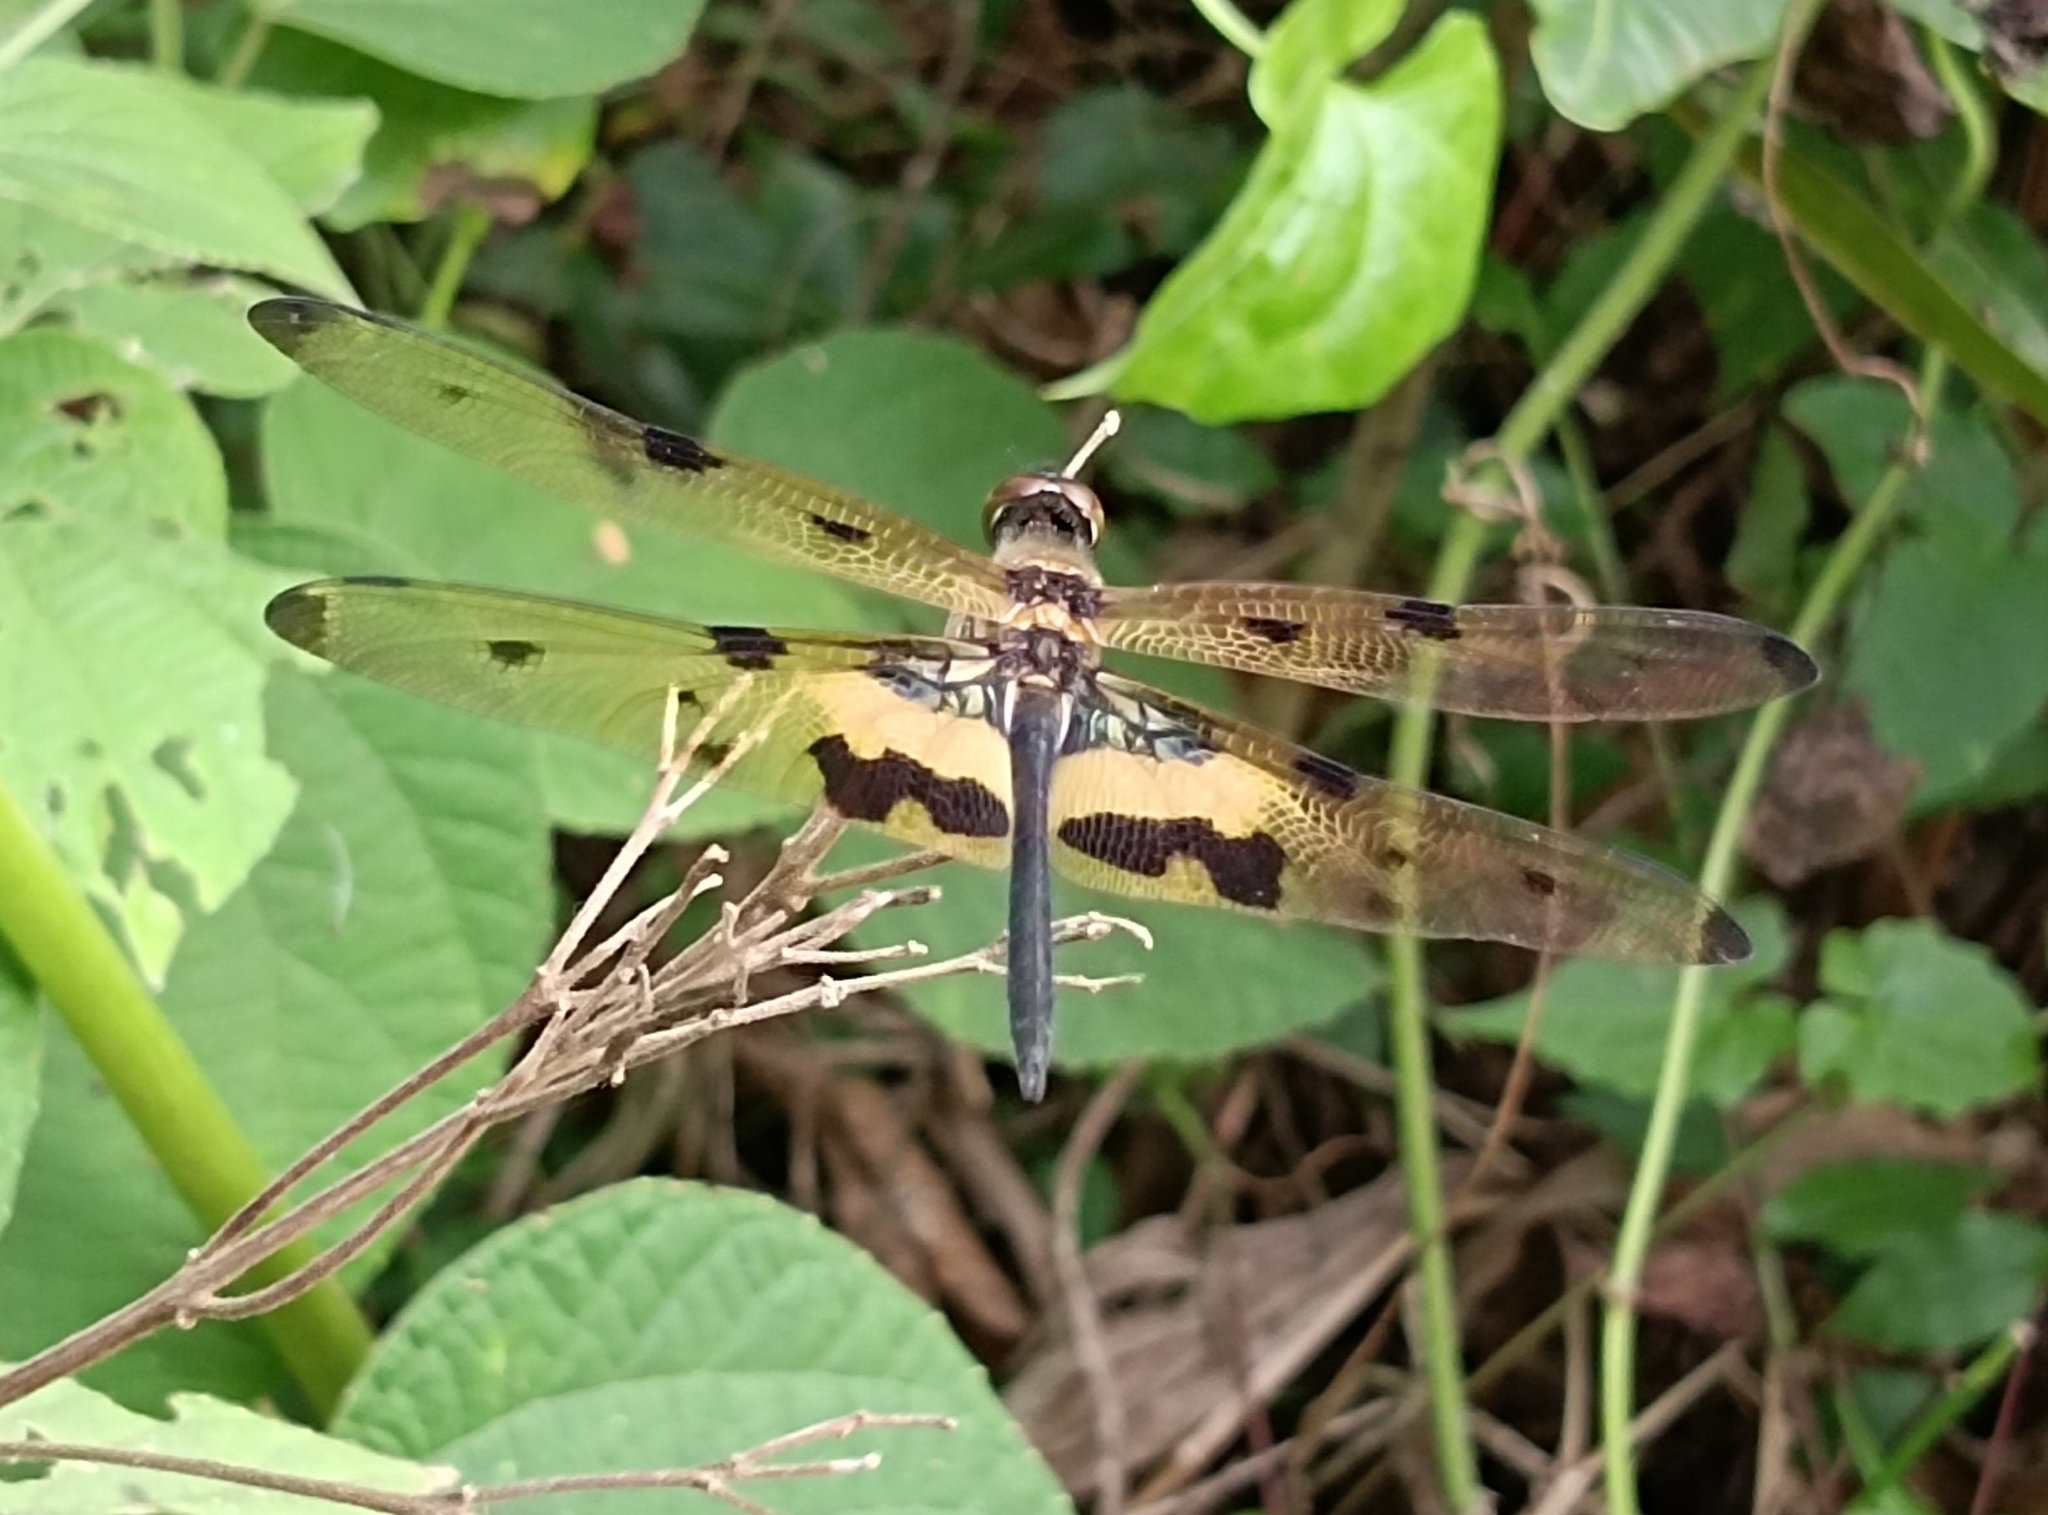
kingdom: Animalia
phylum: Arthropoda
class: Insecta
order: Odonata
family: Libellulidae
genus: Rhyothemis
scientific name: Rhyothemis variegata
